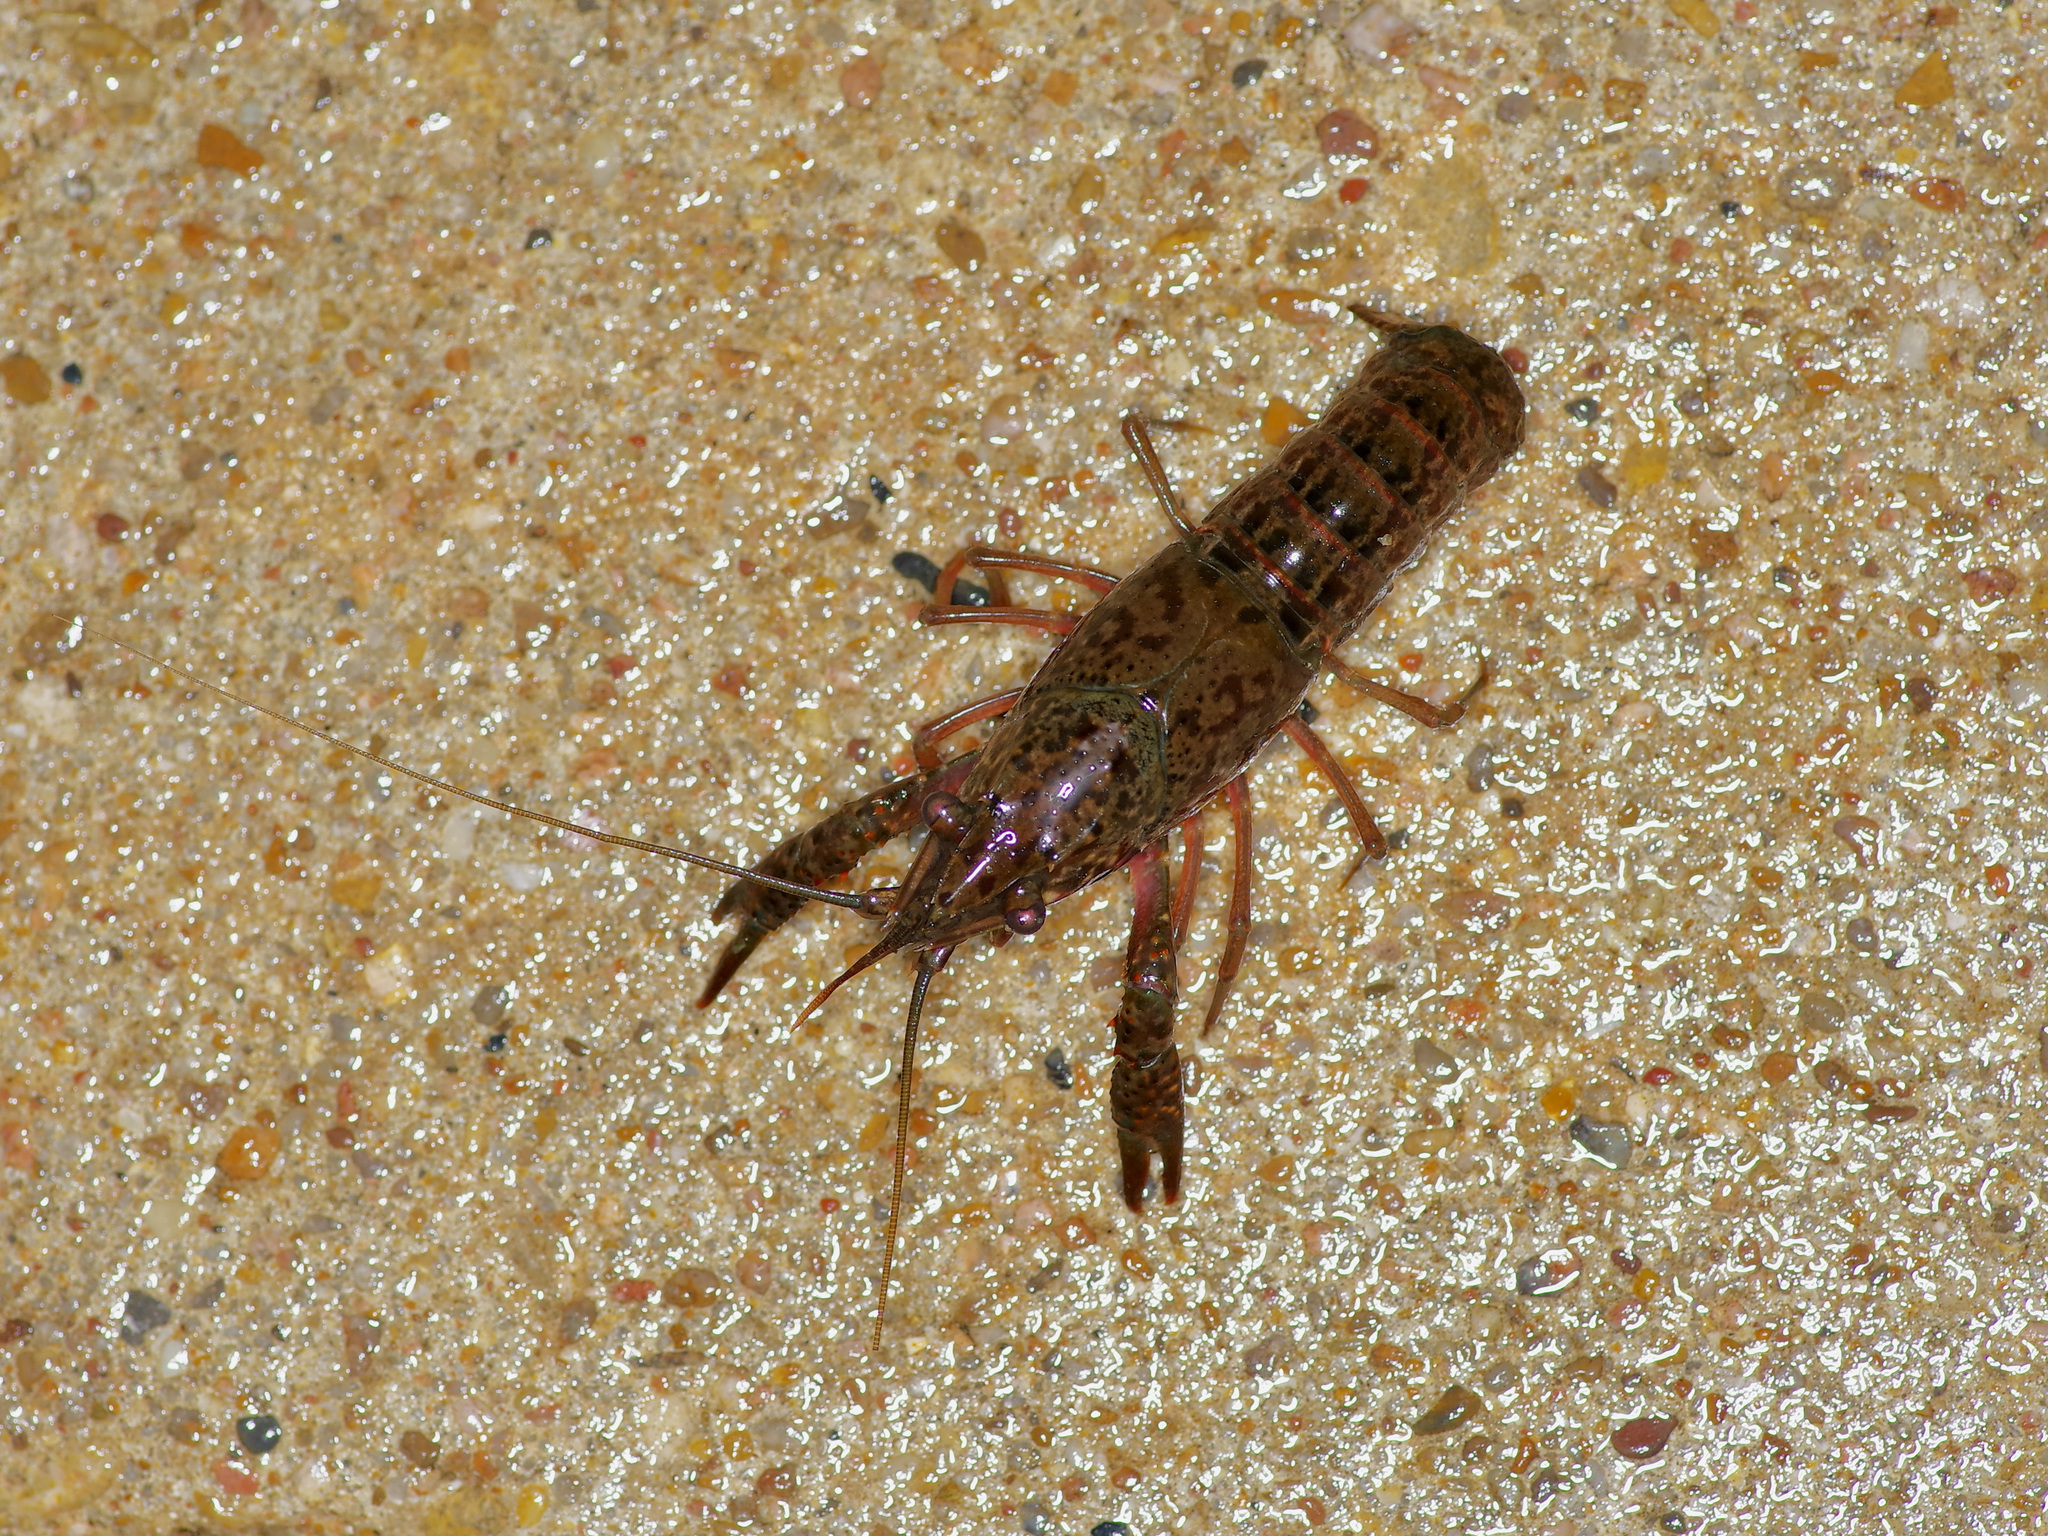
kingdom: Animalia
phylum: Arthropoda
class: Malacostraca
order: Decapoda
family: Cambaridae
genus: Procambarus
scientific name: Procambarus clarkii
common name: Red swamp crayfish
